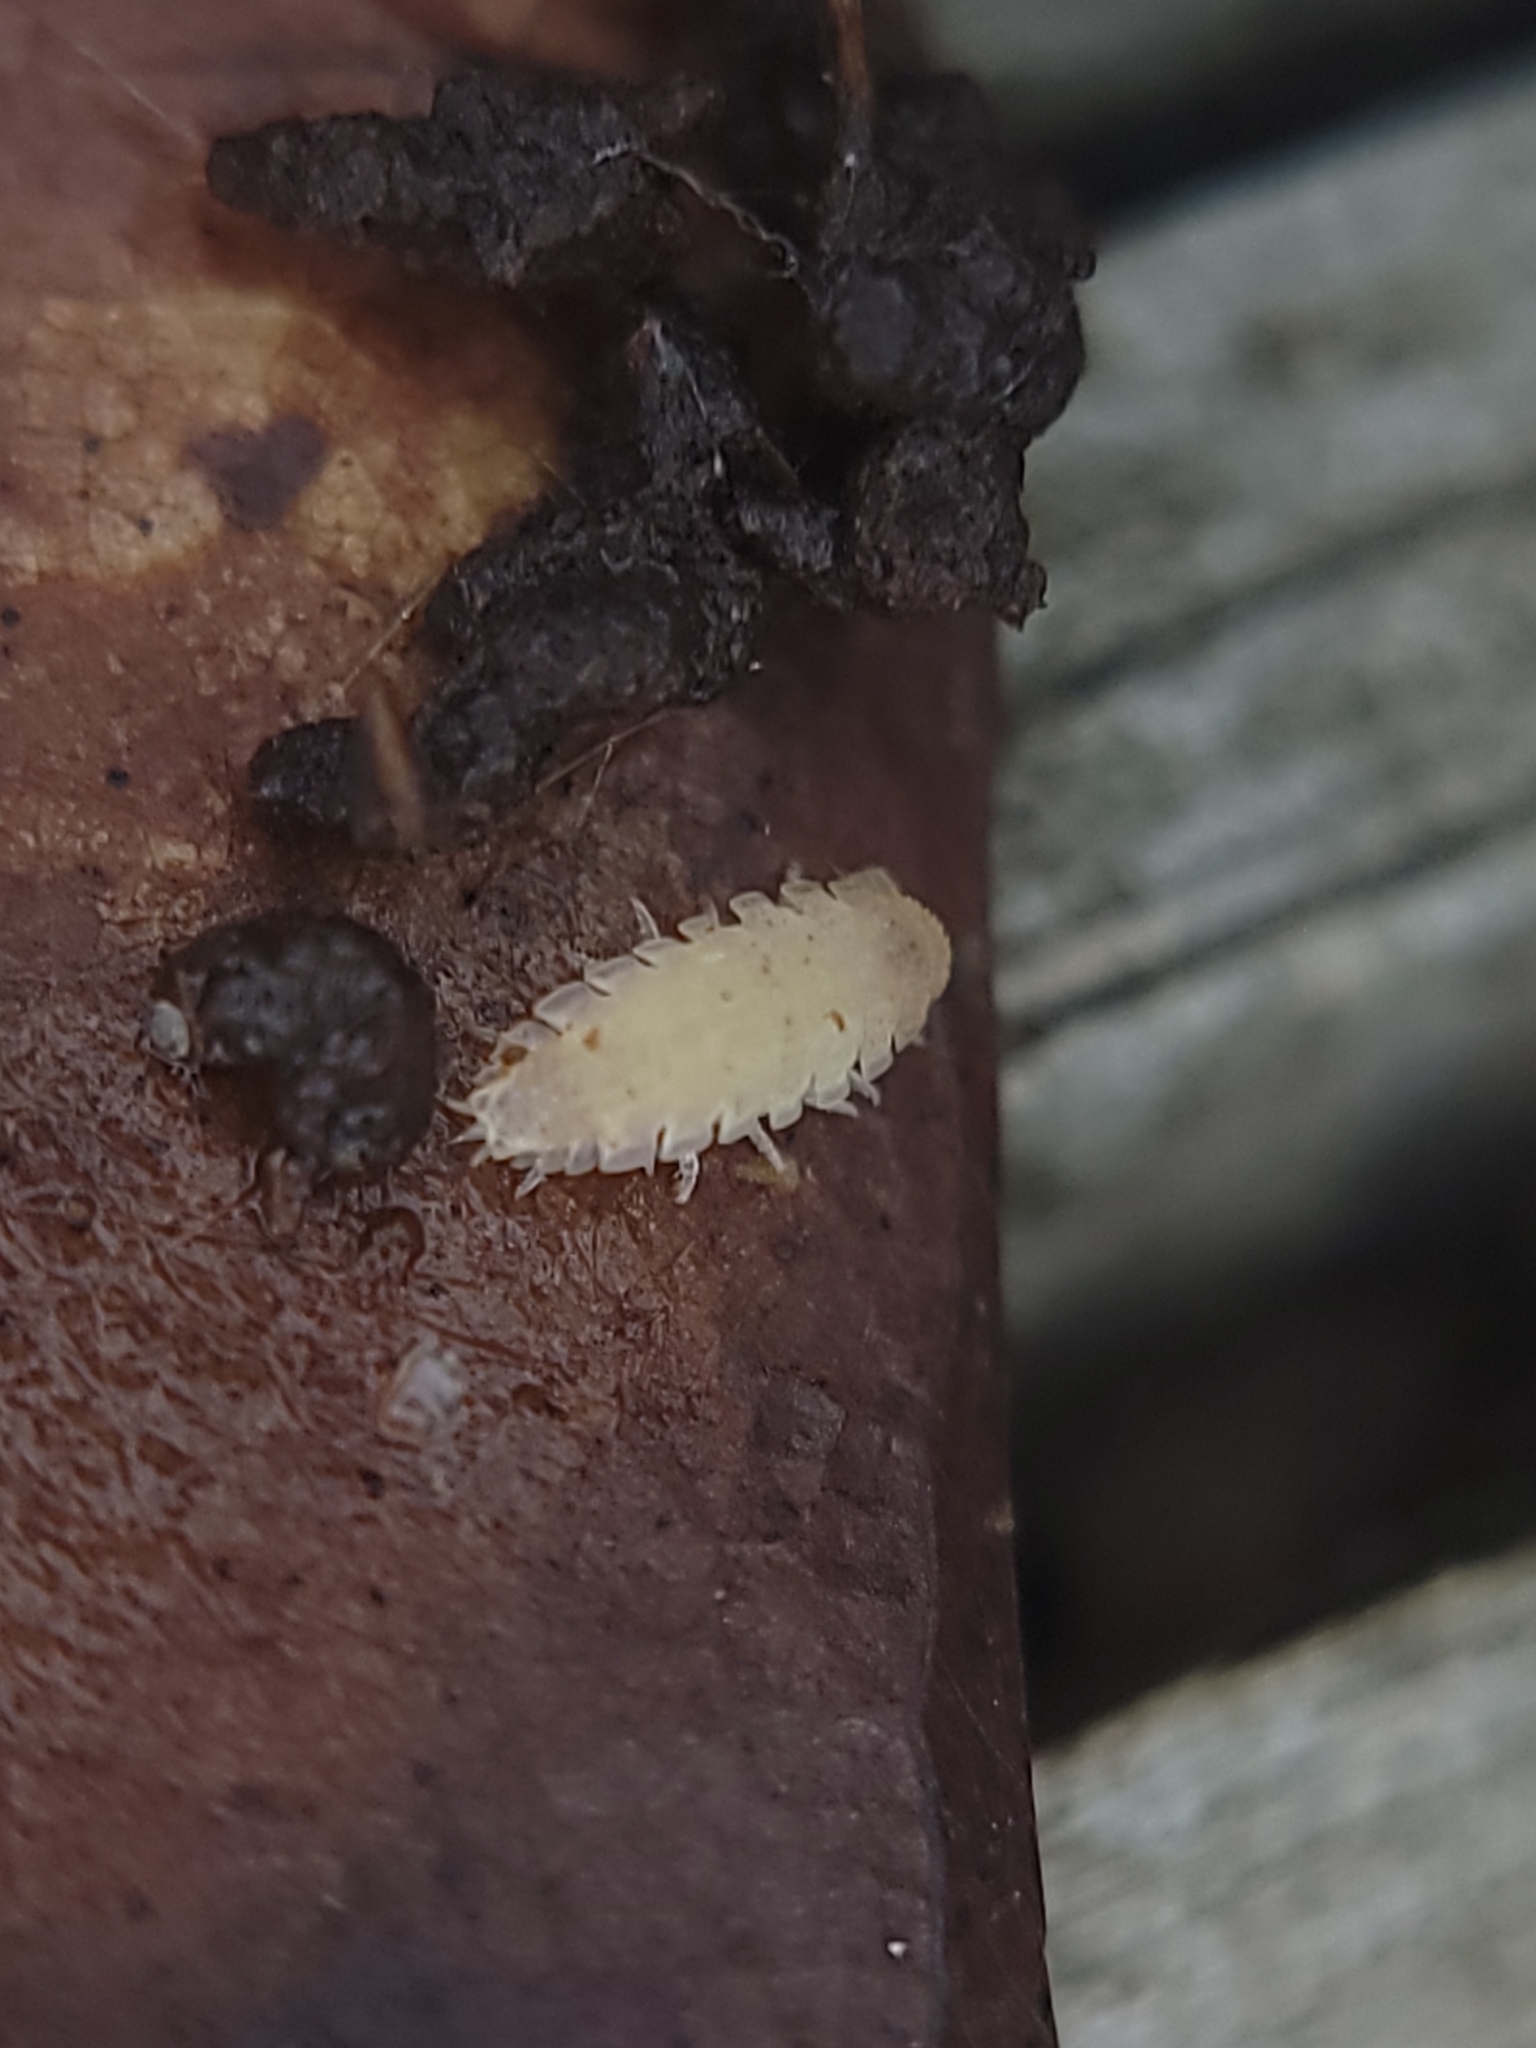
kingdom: Animalia
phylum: Arthropoda
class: Malacostraca
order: Isopoda
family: Trichoniscidae
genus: Haplophthalmus
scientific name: Haplophthalmus danicus
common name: Pillbug
